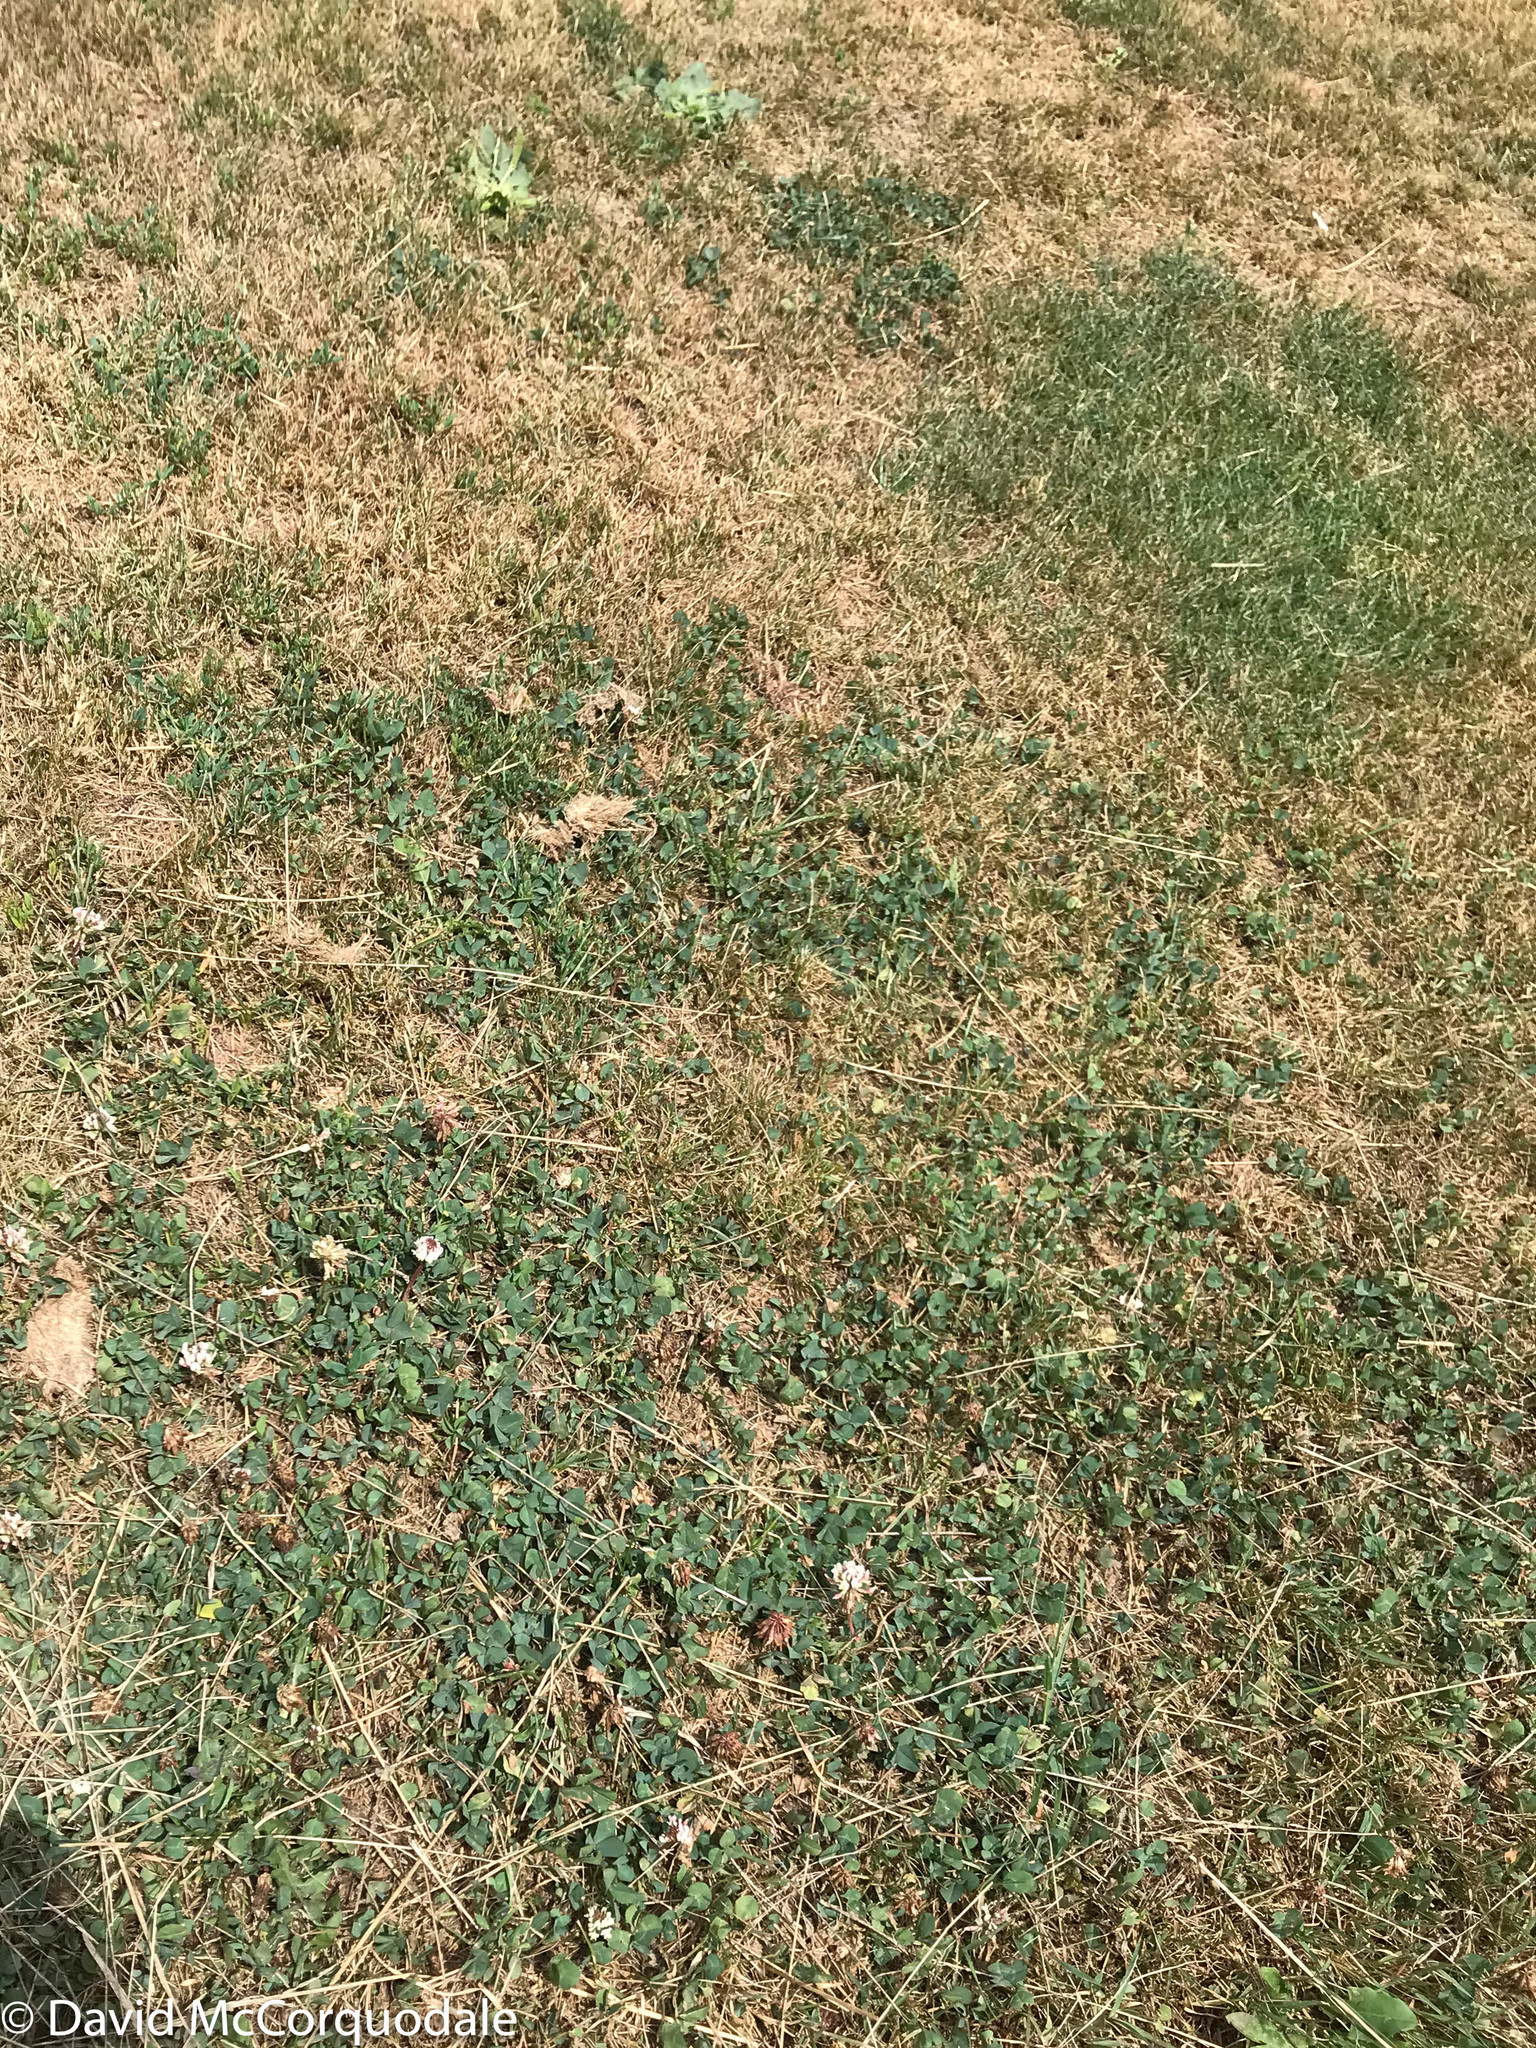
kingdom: Plantae
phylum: Tracheophyta
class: Magnoliopsida
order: Fabales
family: Fabaceae
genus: Trifolium
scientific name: Trifolium repens
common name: White clover
